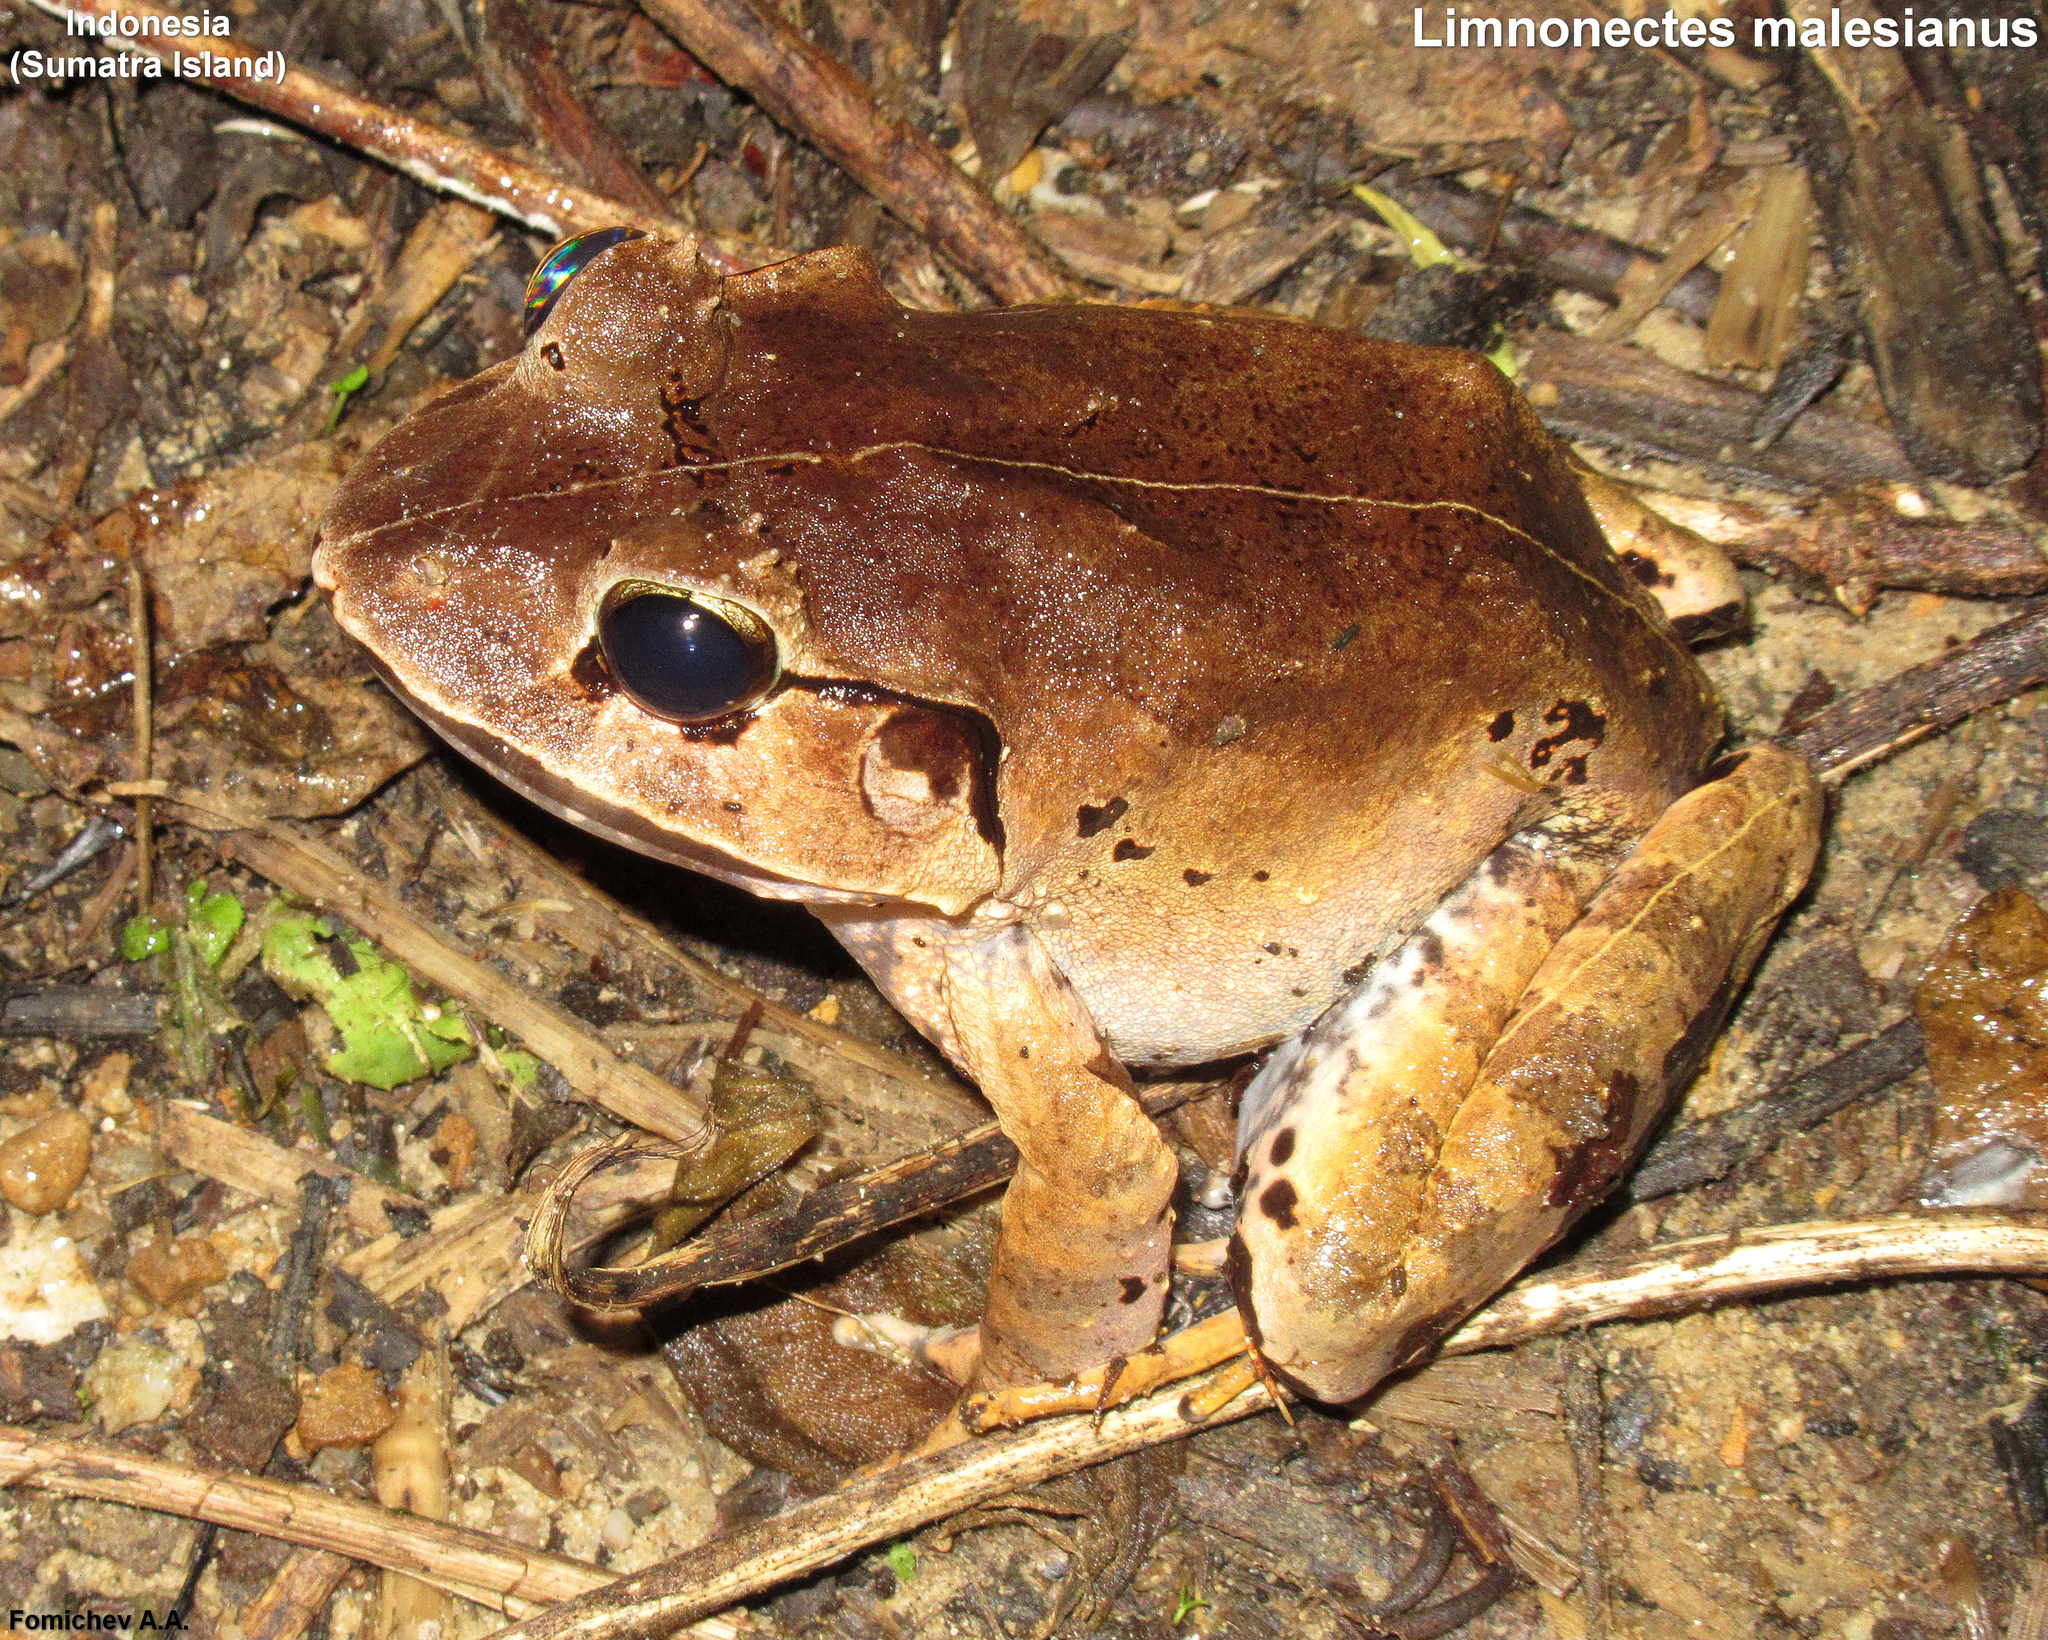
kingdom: Animalia
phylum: Chordata
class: Amphibia
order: Anura
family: Dicroglossidae
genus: Limnonectes
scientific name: Limnonectes malesianus
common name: Peat swamp frog/malaysian frog
